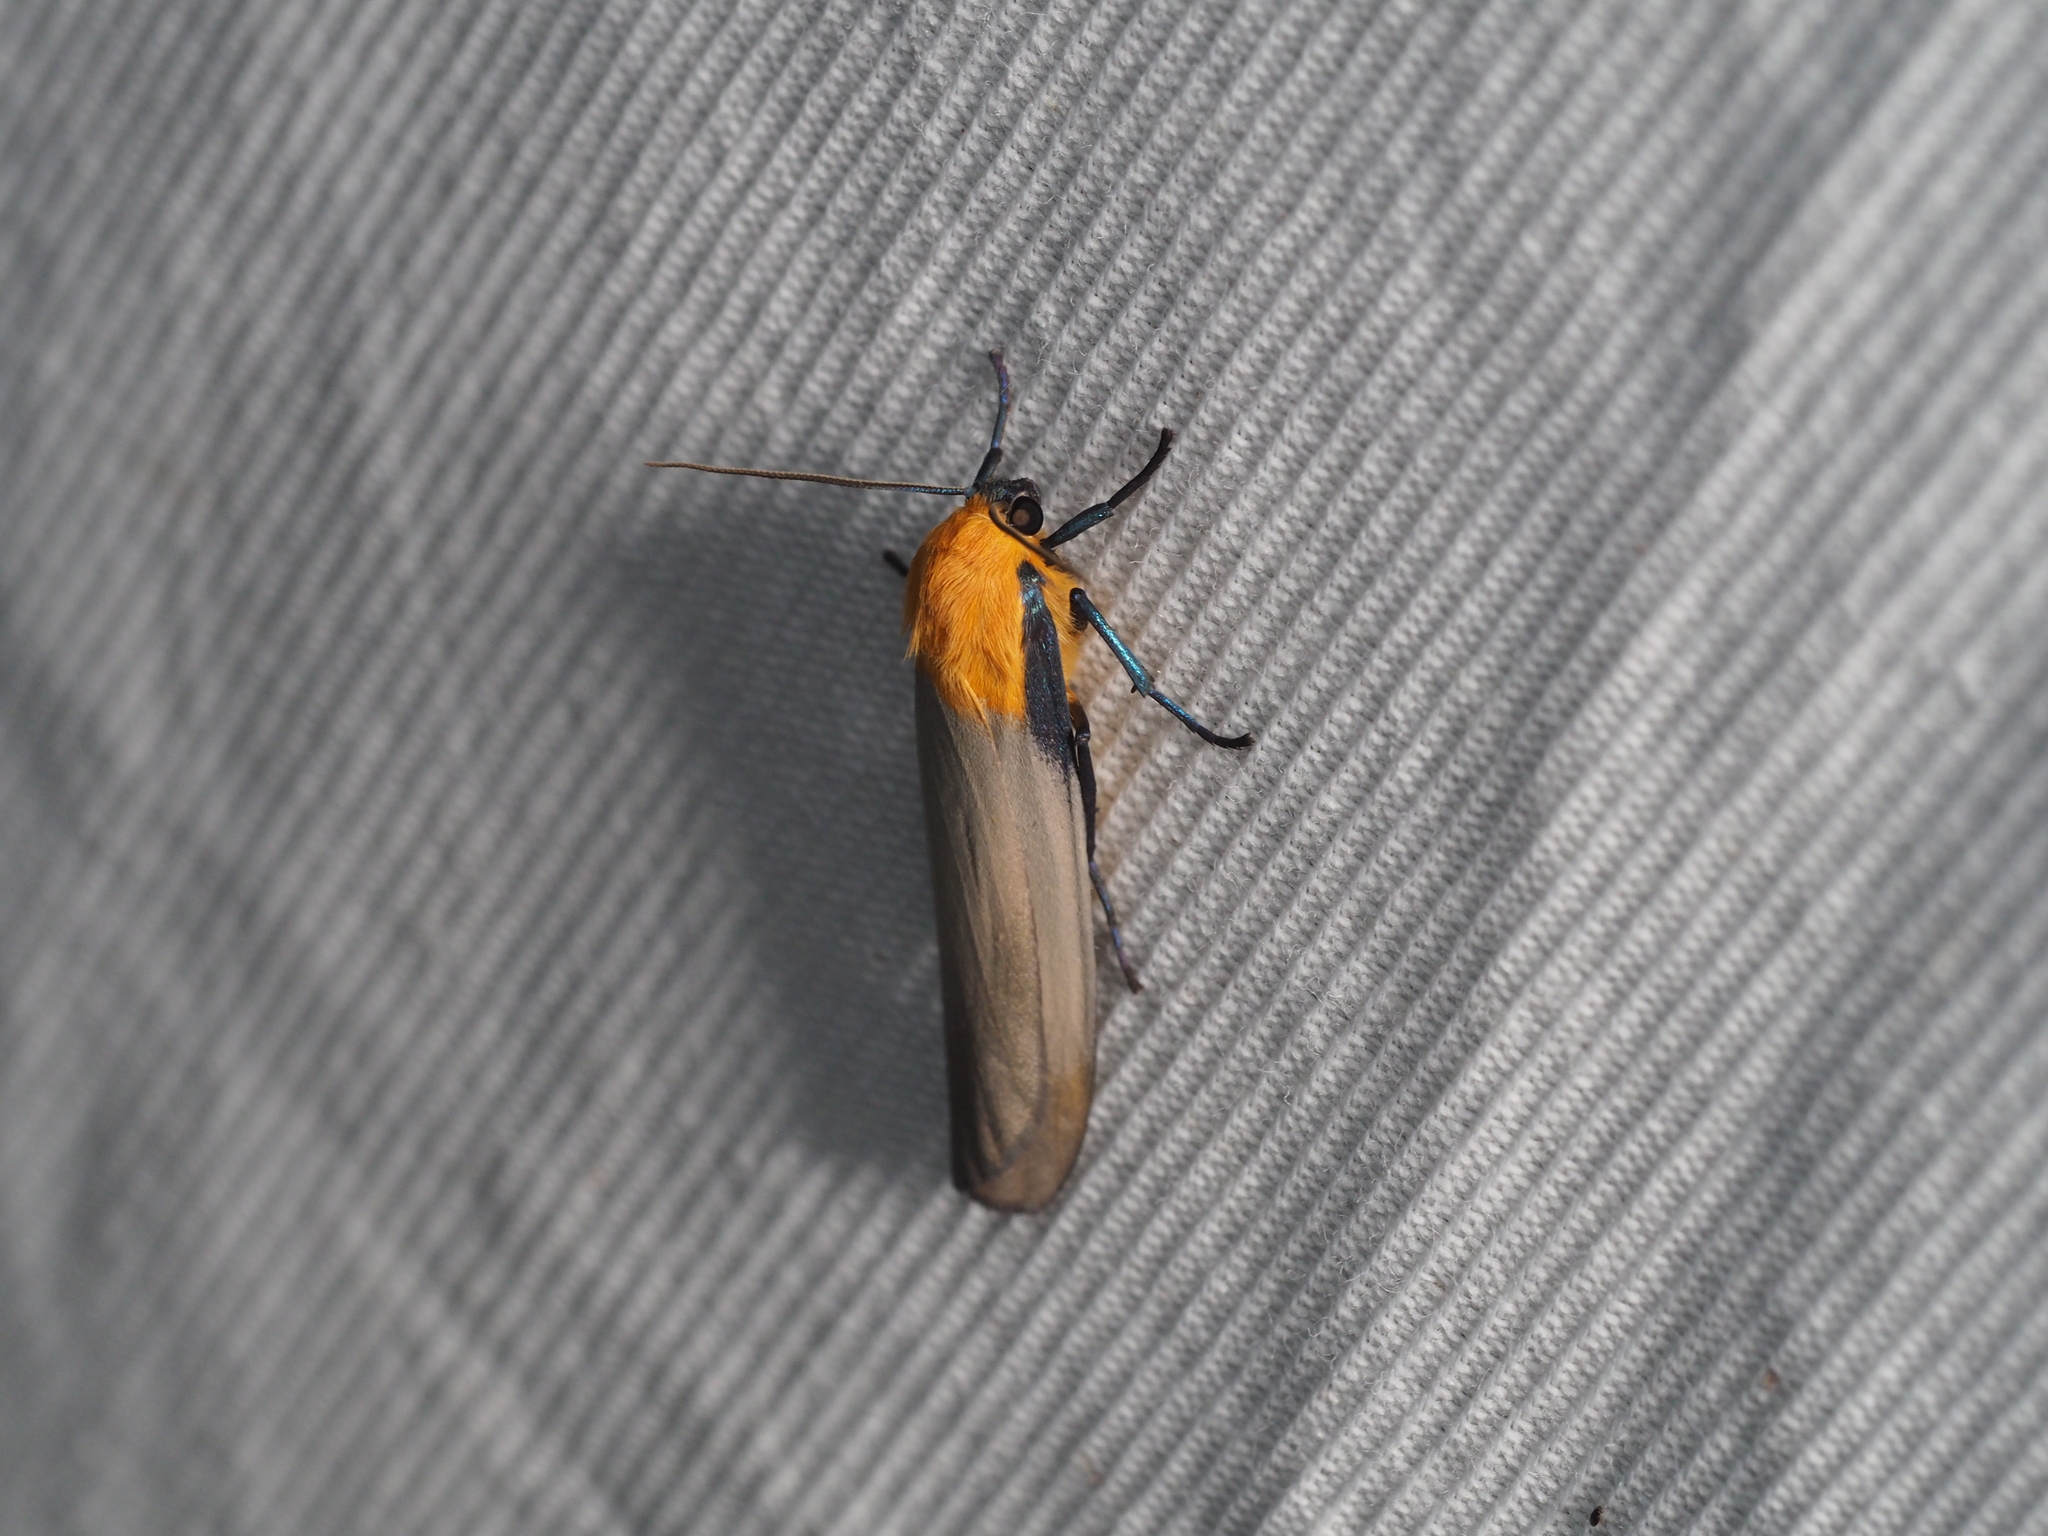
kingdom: Animalia
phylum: Arthropoda
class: Insecta
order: Lepidoptera
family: Erebidae
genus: Lithosia
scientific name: Lithosia quadra
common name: Four-spotted footman
